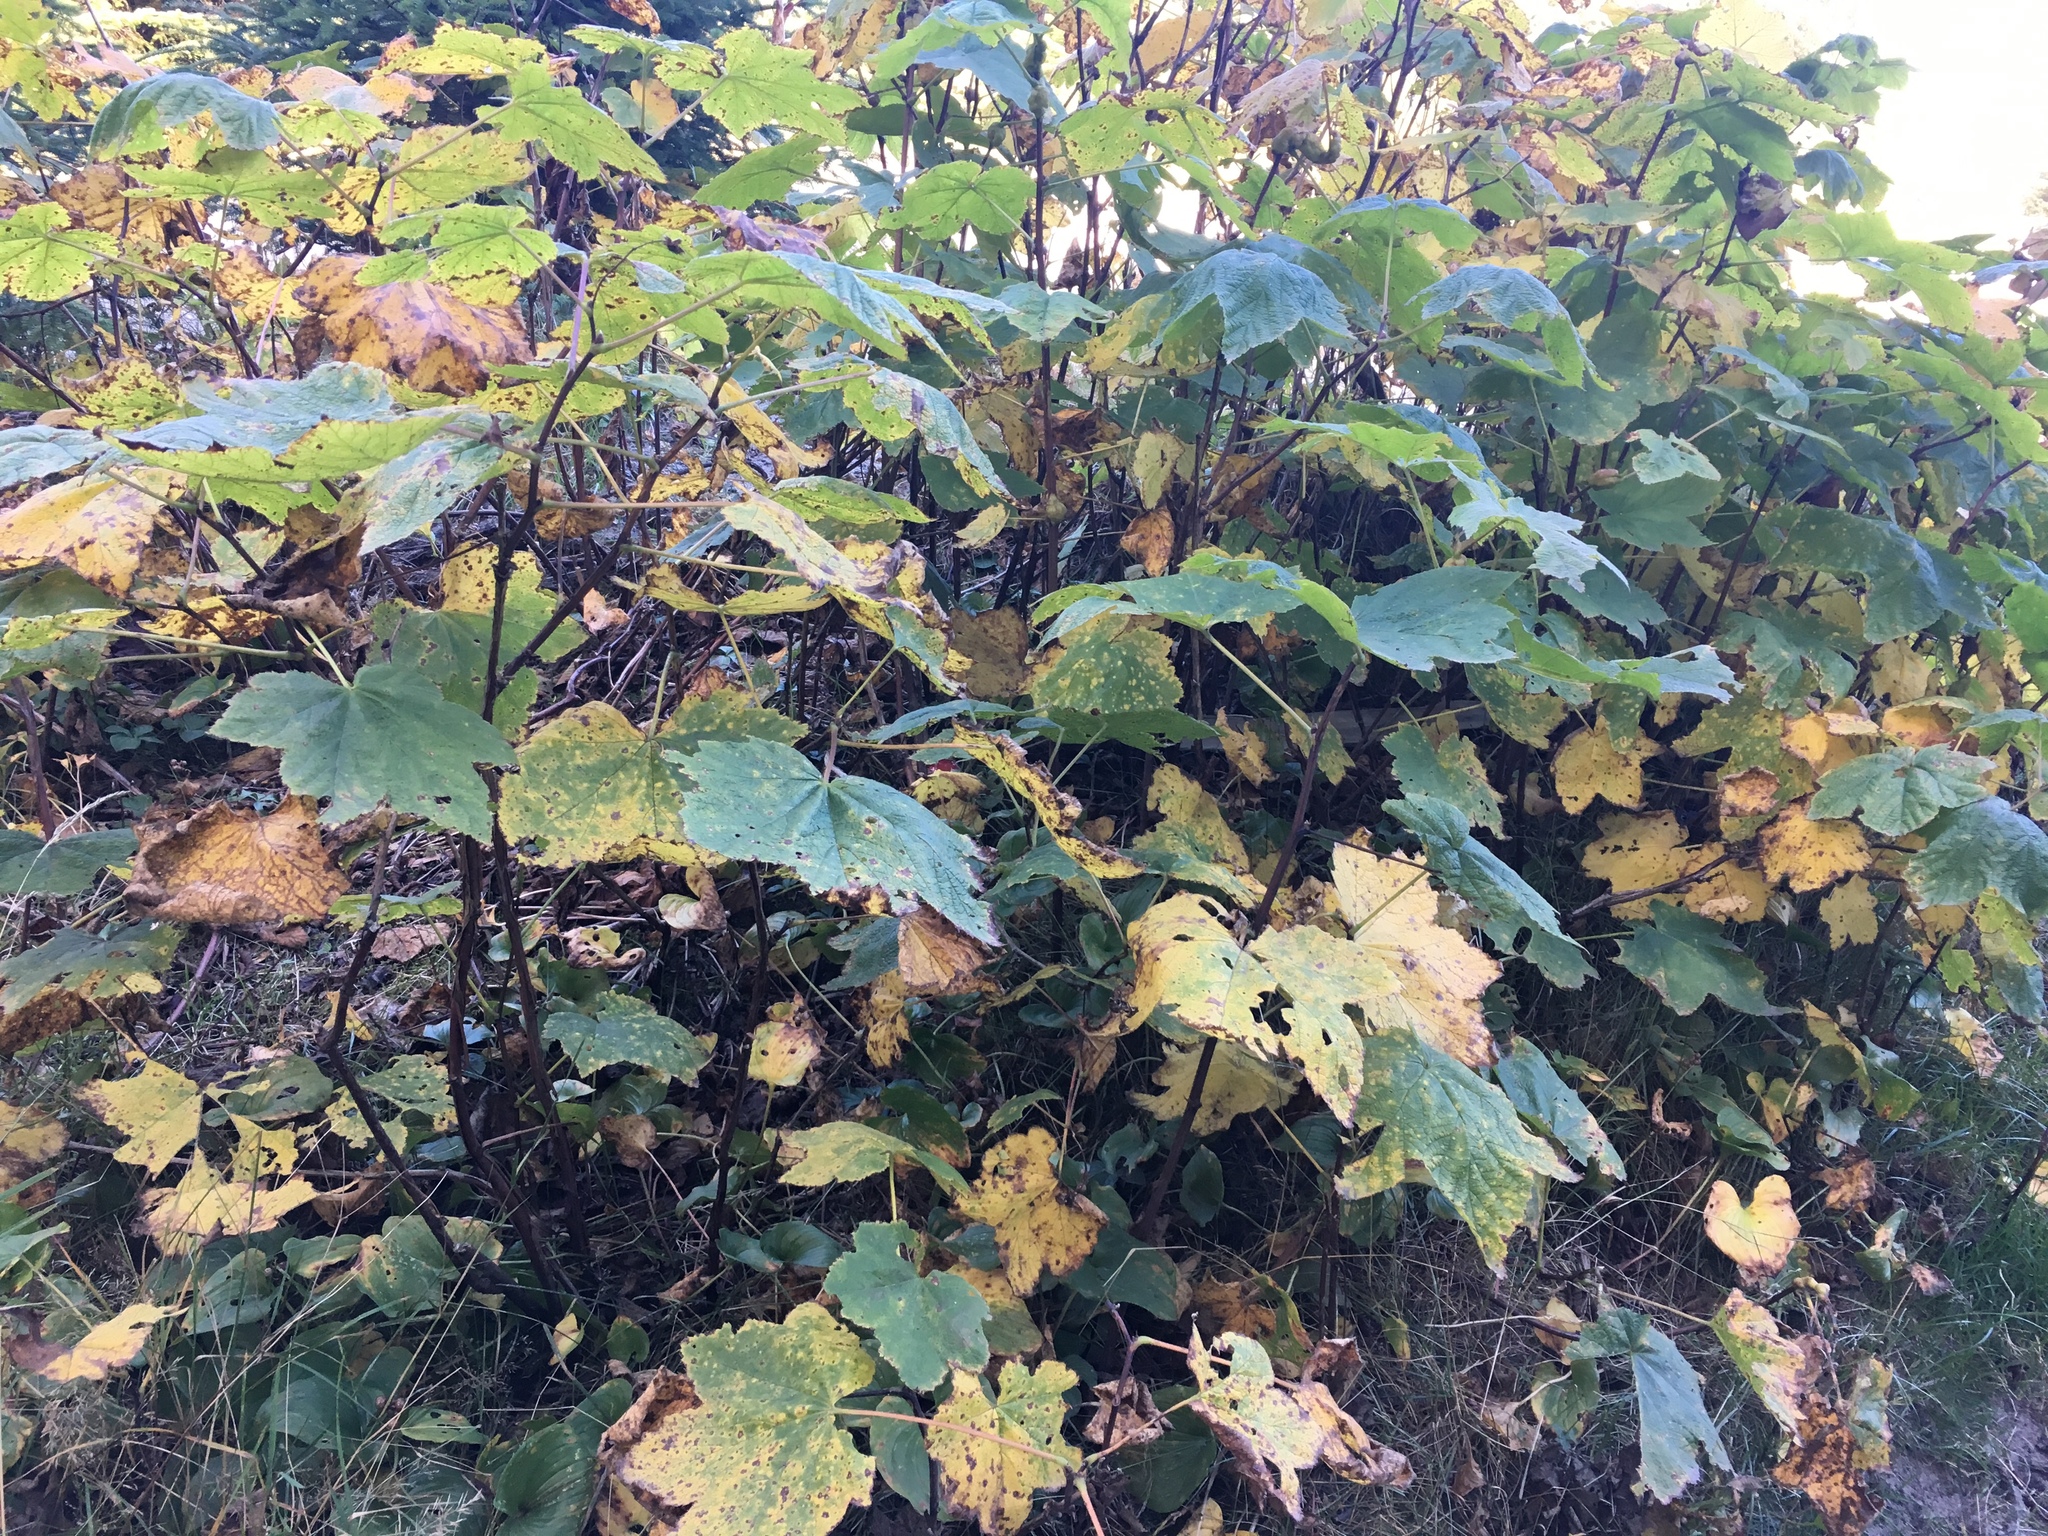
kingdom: Plantae
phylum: Tracheophyta
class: Magnoliopsida
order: Rosales
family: Rosaceae
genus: Rubus
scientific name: Rubus parviflorus
